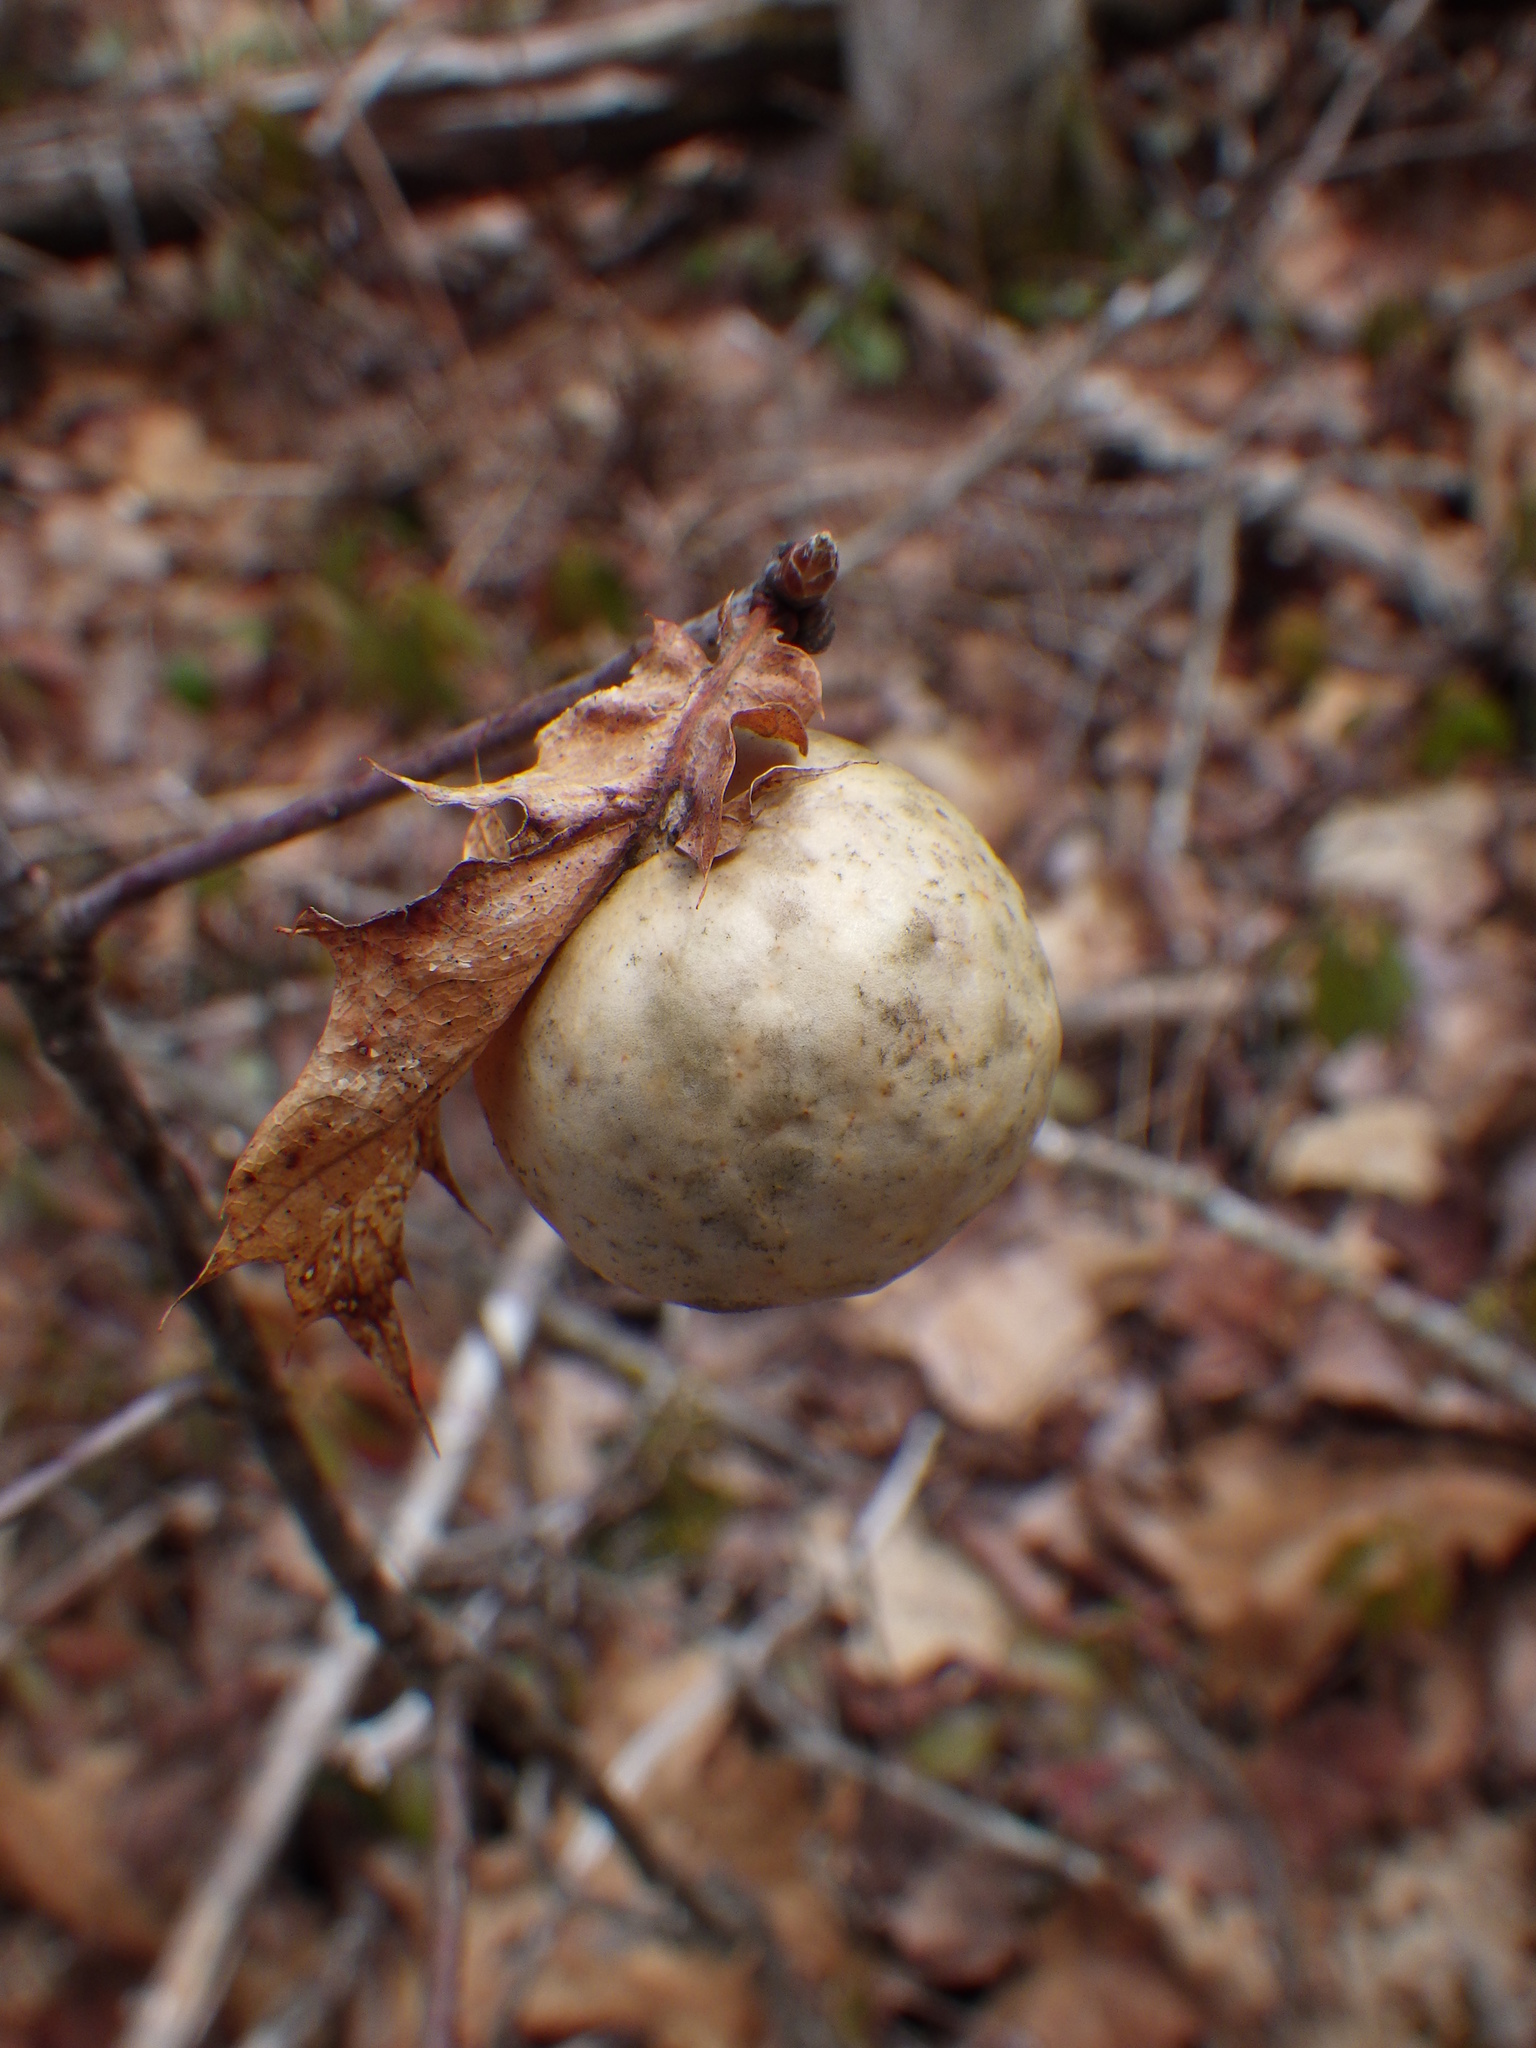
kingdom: Animalia
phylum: Arthropoda
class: Insecta
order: Hymenoptera
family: Cynipidae
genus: Amphibolips
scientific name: Amphibolips
